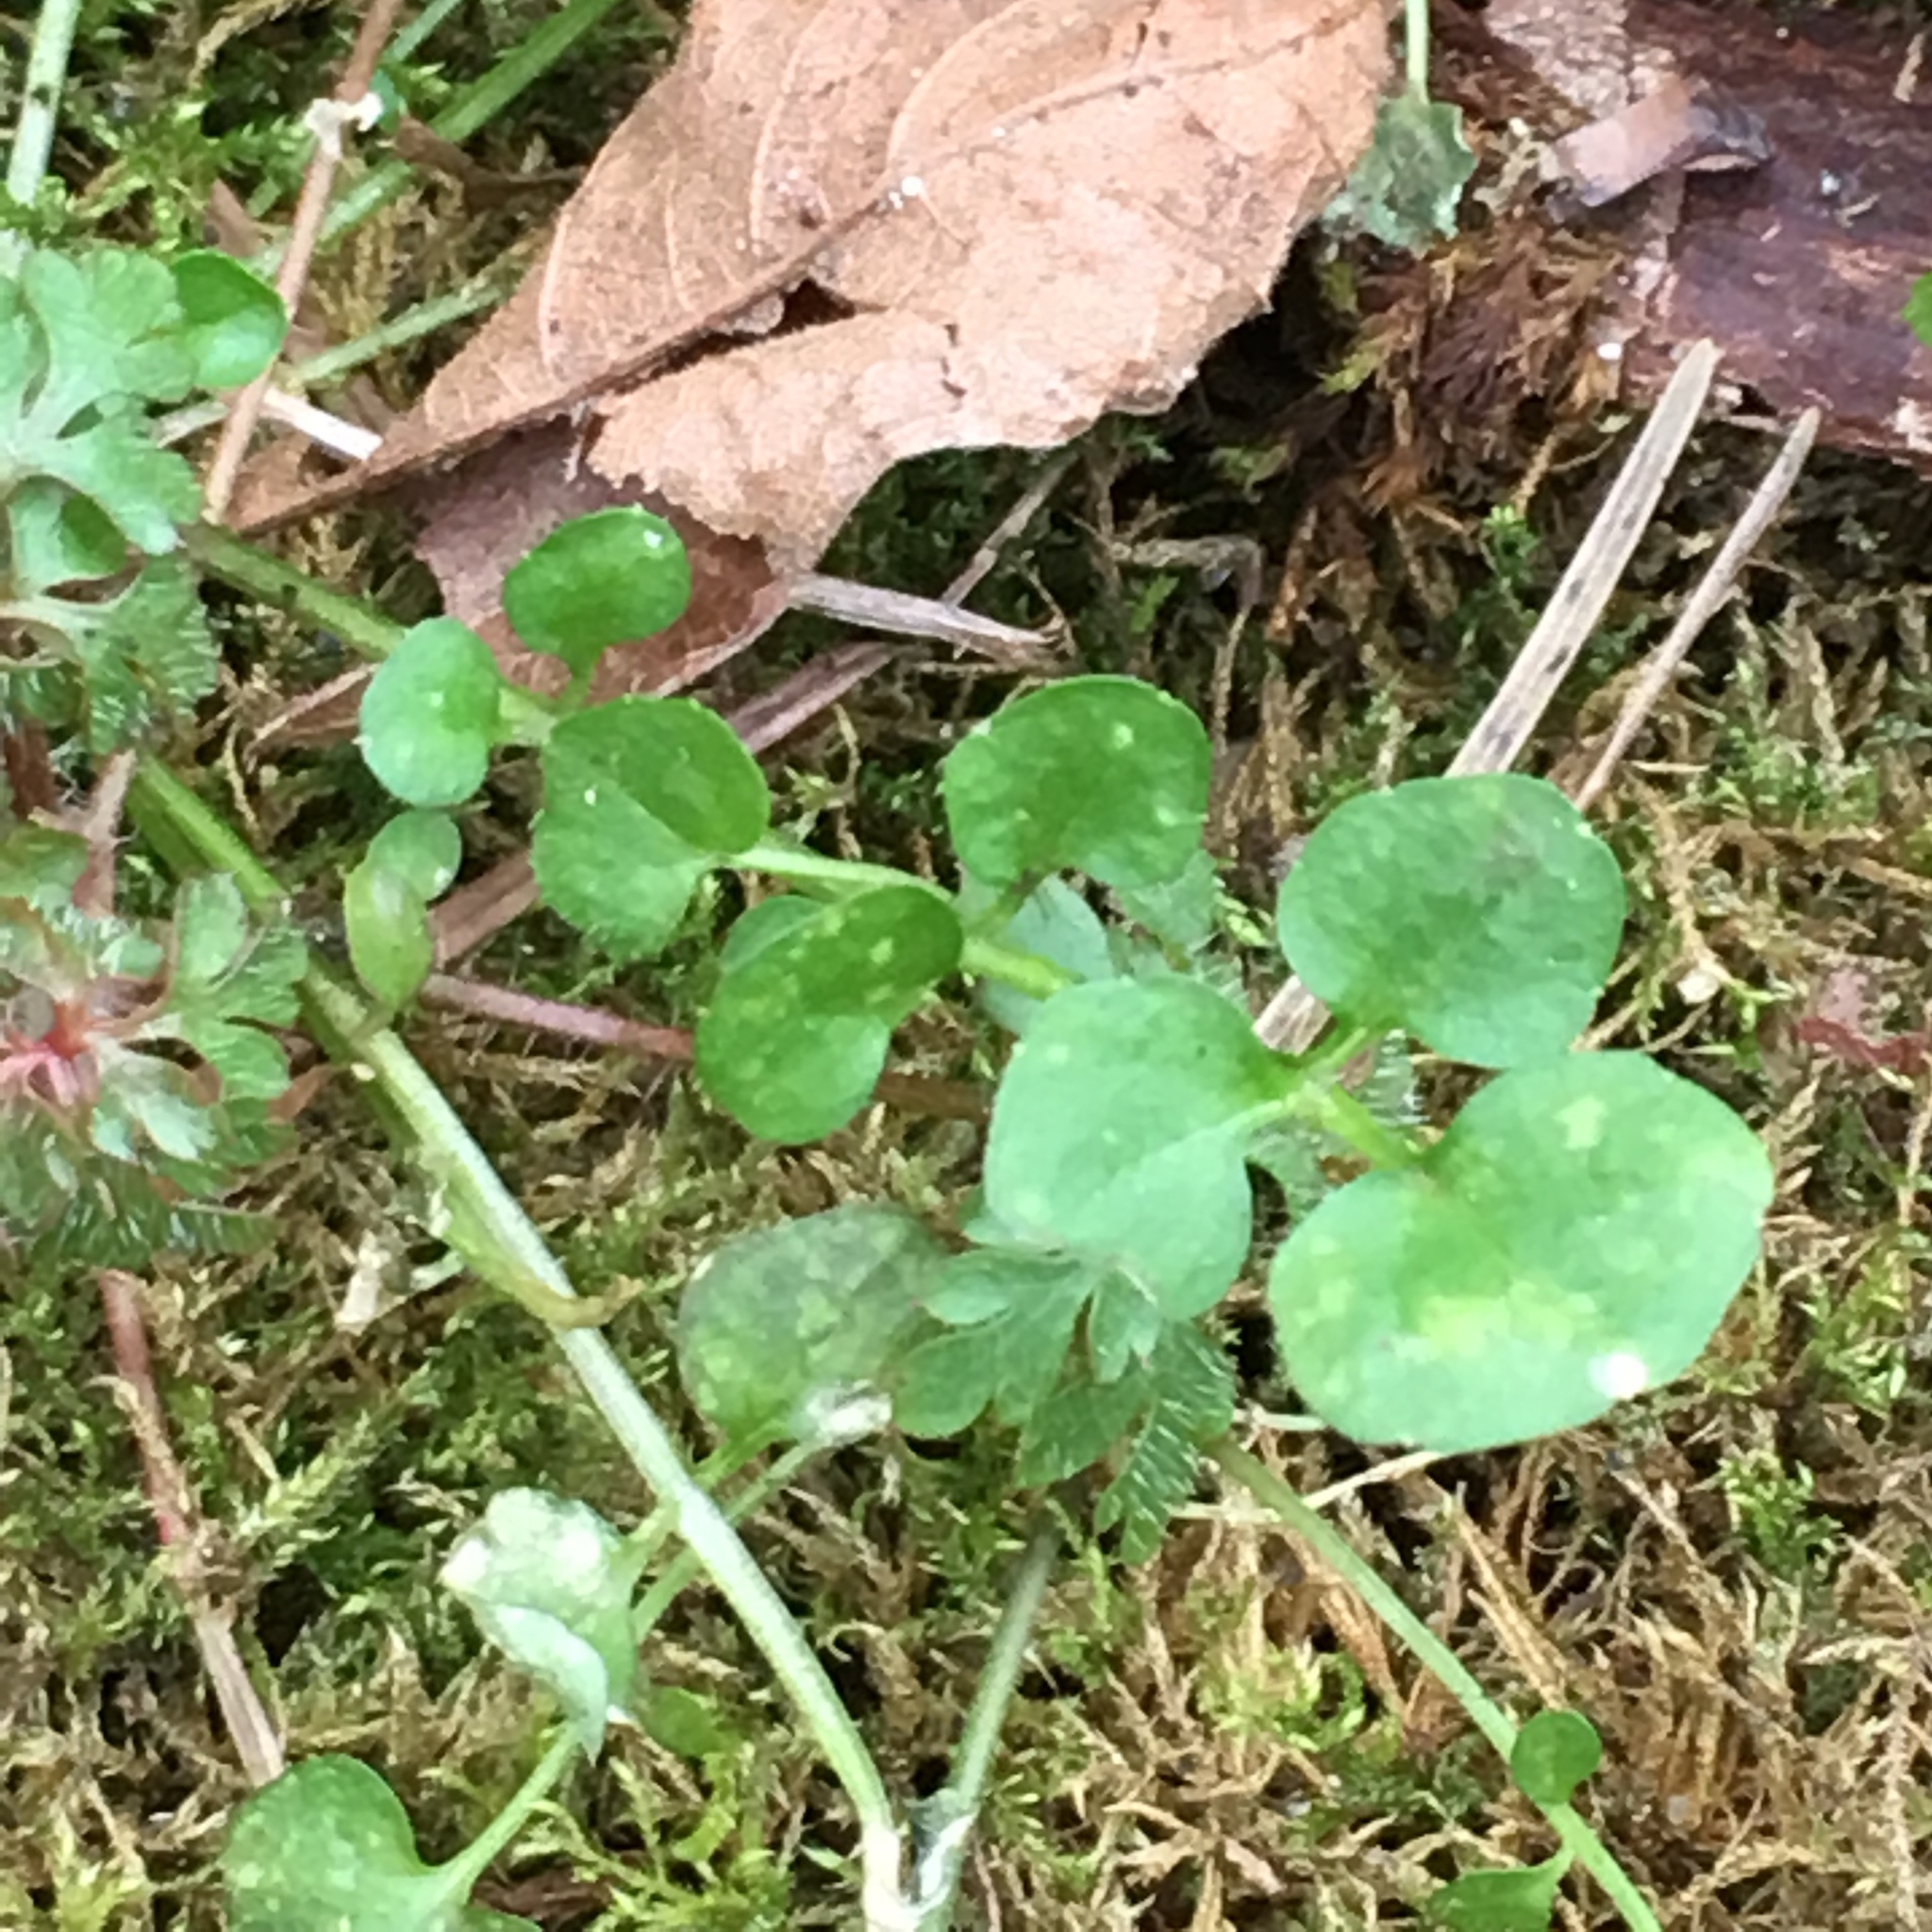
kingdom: Plantae
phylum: Tracheophyta
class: Magnoliopsida
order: Brassicales
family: Brassicaceae
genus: Cardamine
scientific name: Cardamine hirsuta
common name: Hairy bittercress
